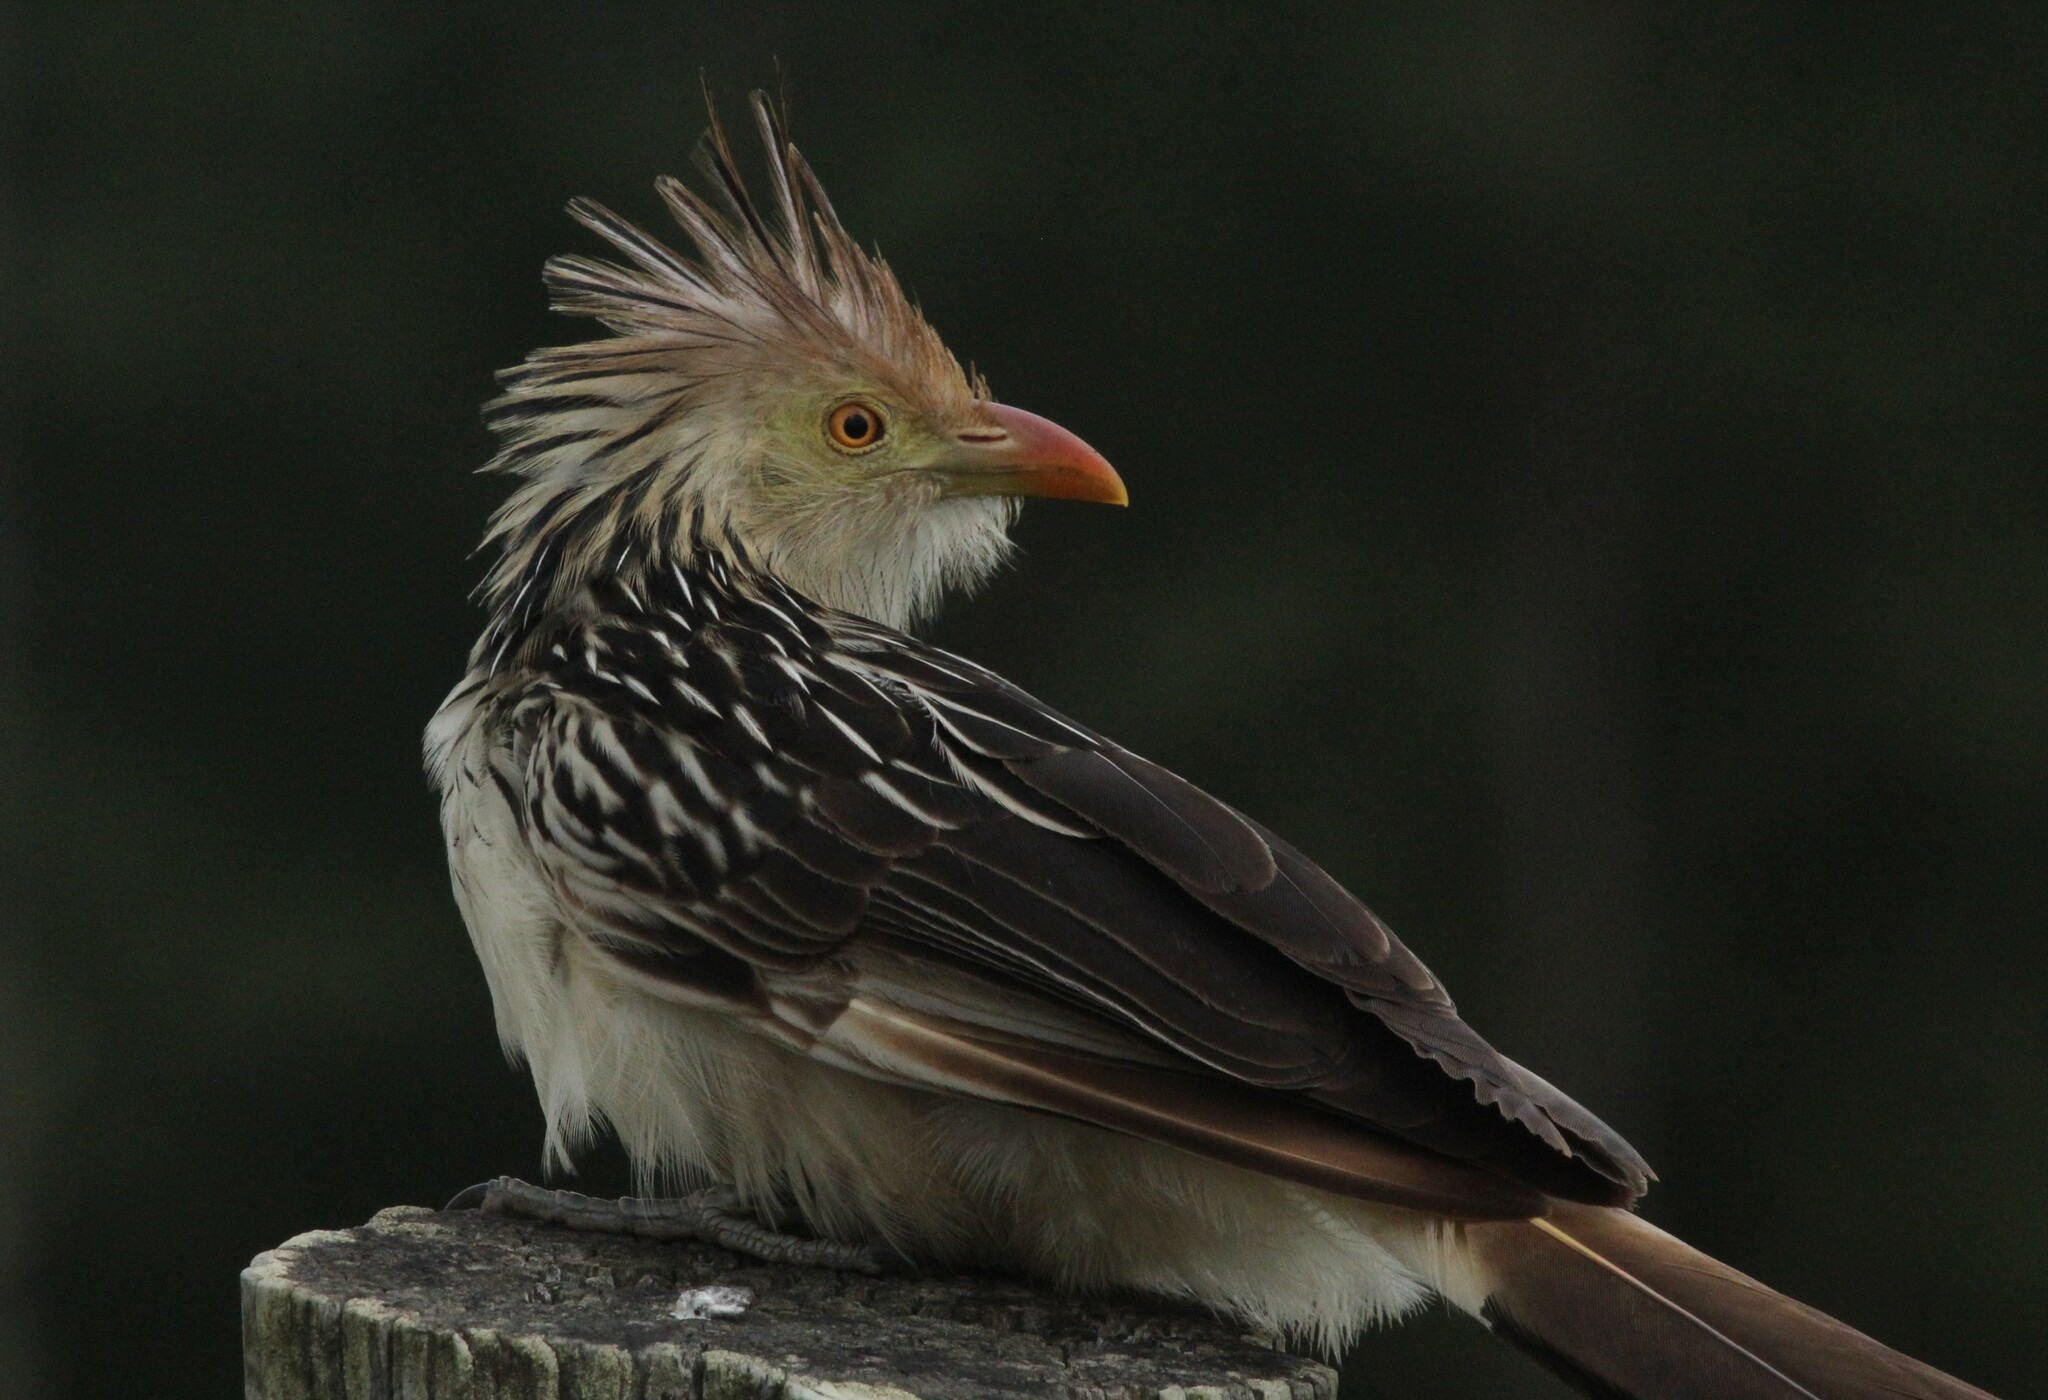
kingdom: Animalia
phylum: Chordata
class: Aves
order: Cuculiformes
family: Cuculidae
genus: Guira
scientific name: Guira guira
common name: Guira cuckoo
